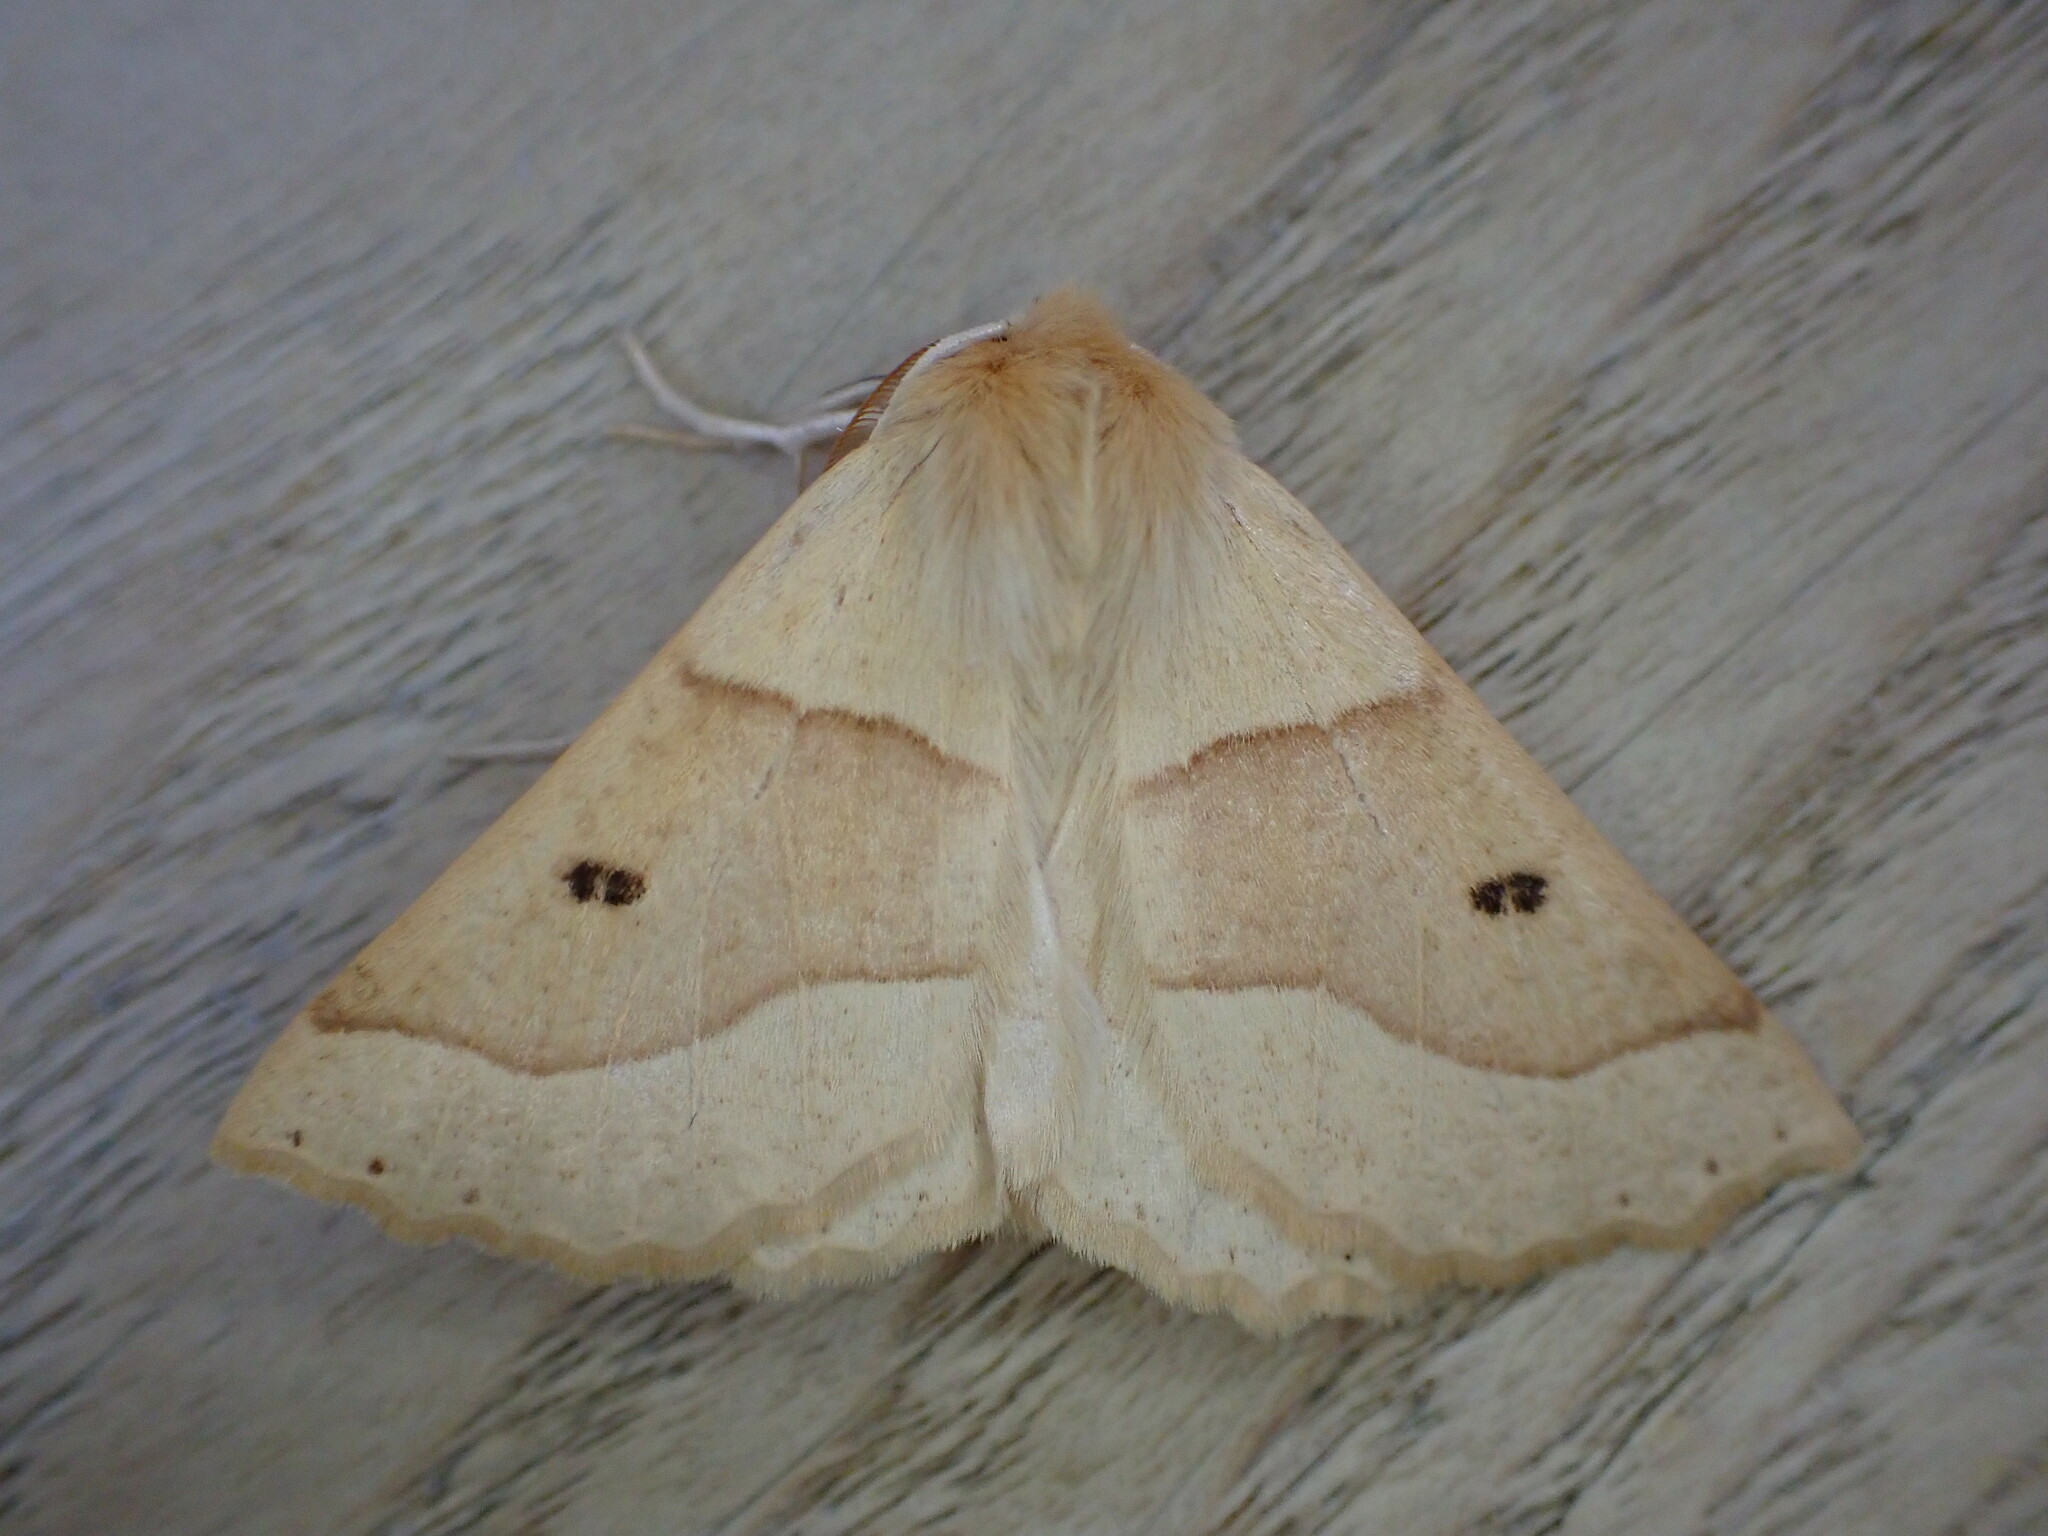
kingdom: Animalia
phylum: Arthropoda
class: Insecta
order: Lepidoptera
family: Geometridae
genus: Crocallis
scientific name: Crocallis elinguaria
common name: Scalloped oak
